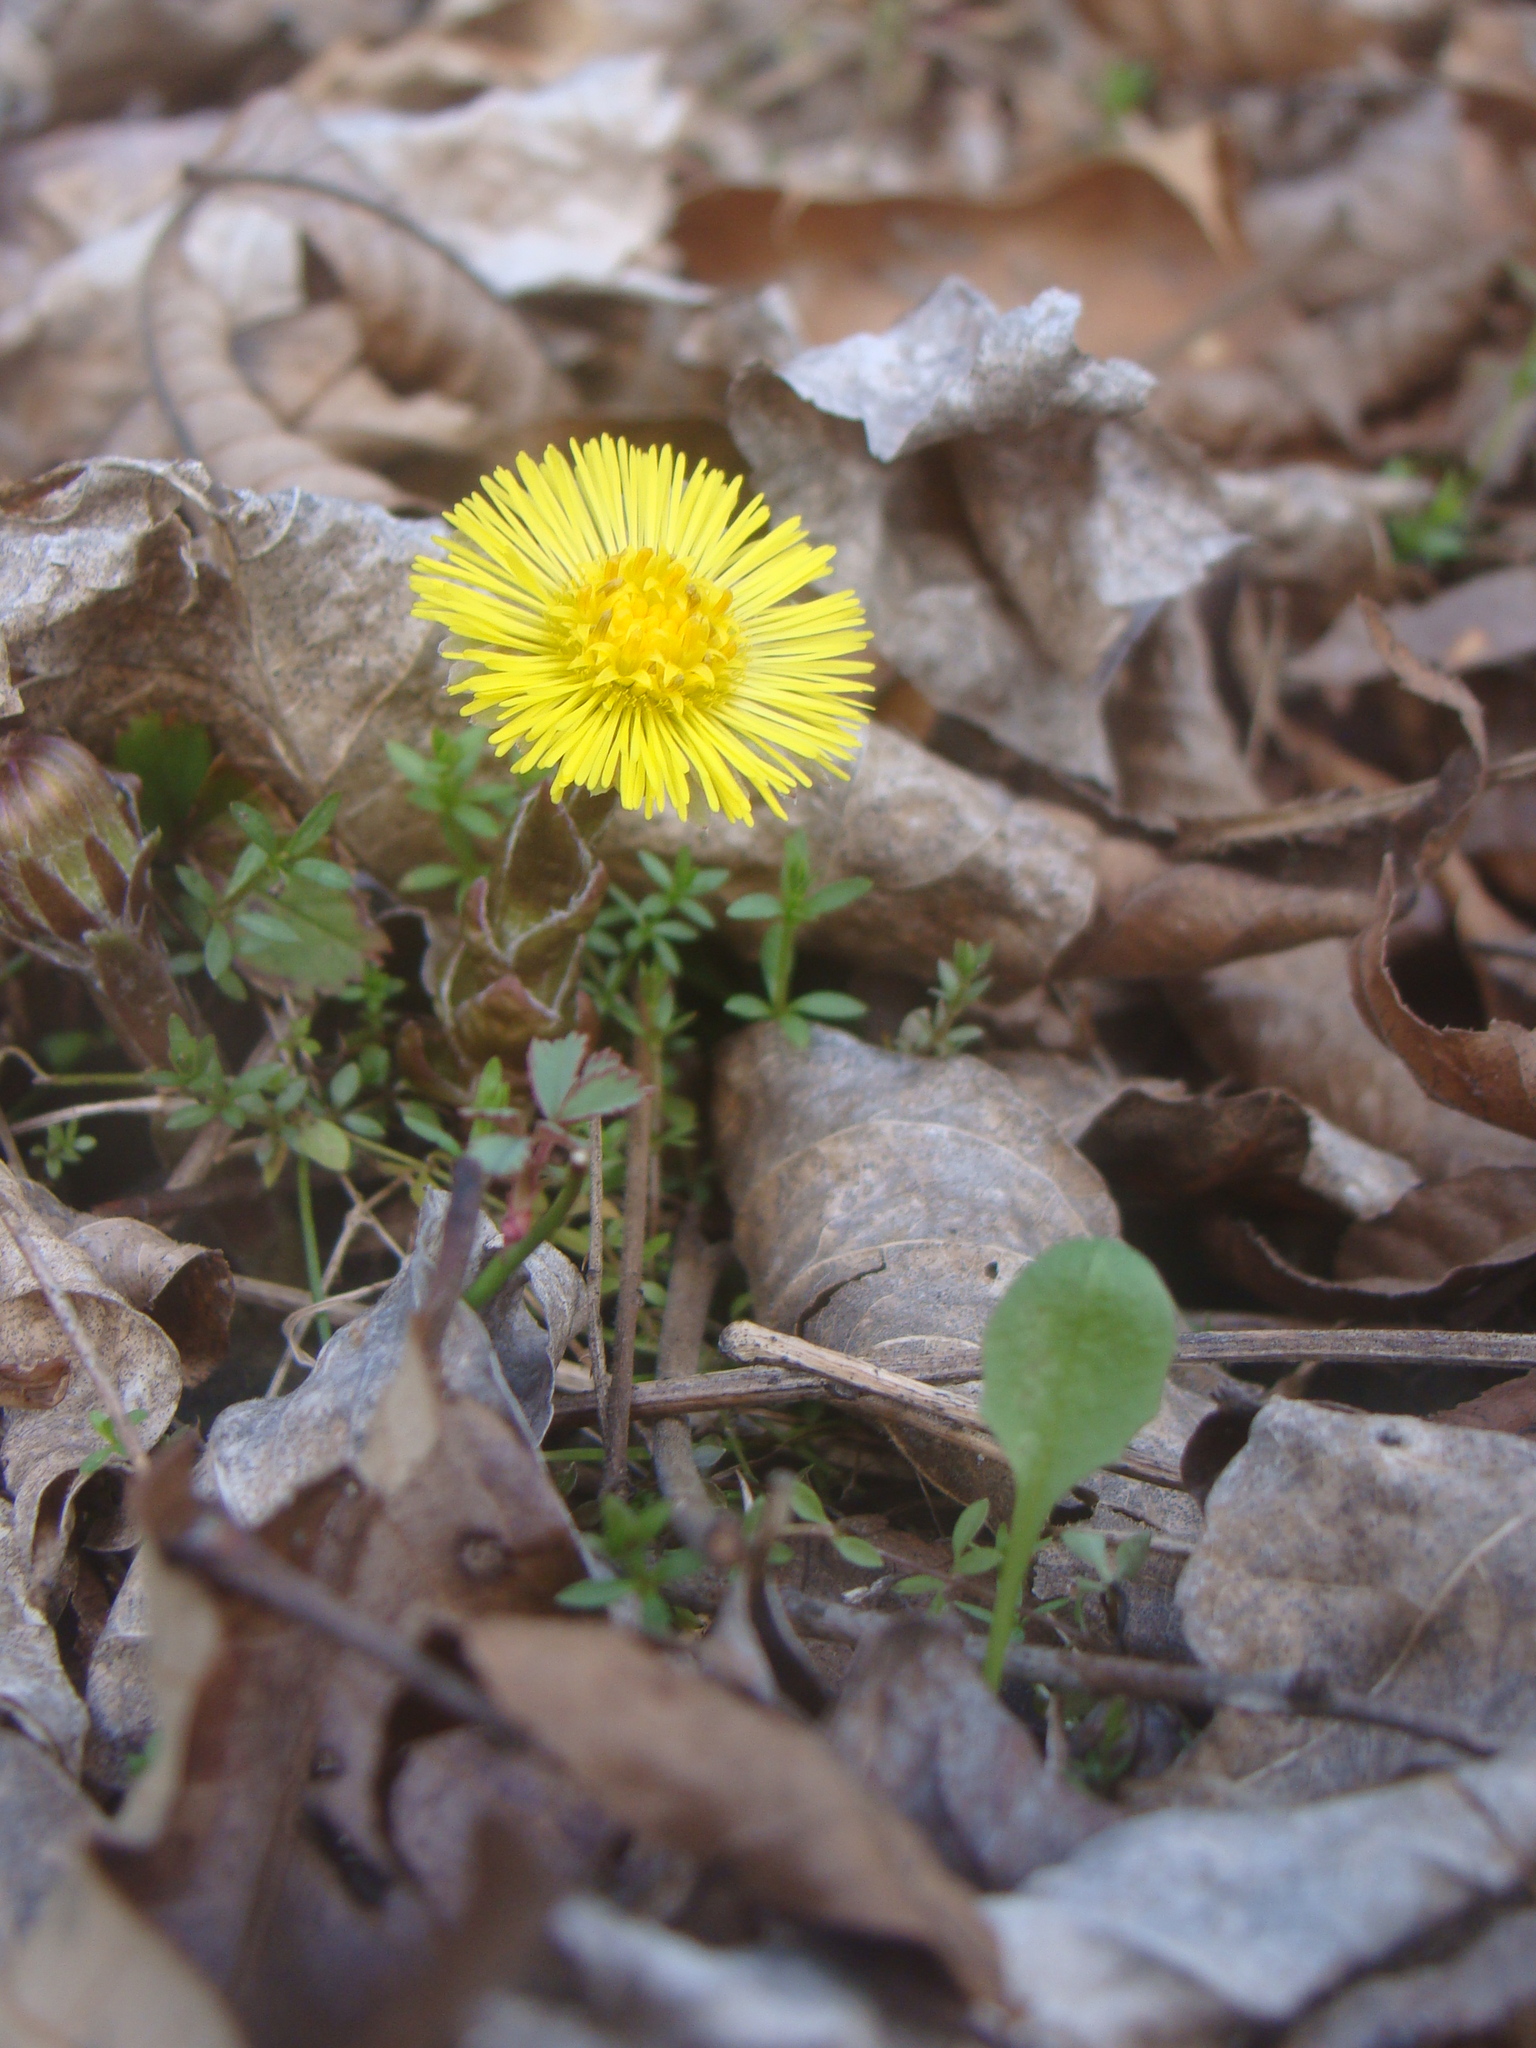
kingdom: Plantae
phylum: Tracheophyta
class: Magnoliopsida
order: Asterales
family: Asteraceae
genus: Tussilago
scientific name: Tussilago farfara
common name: Coltsfoot
